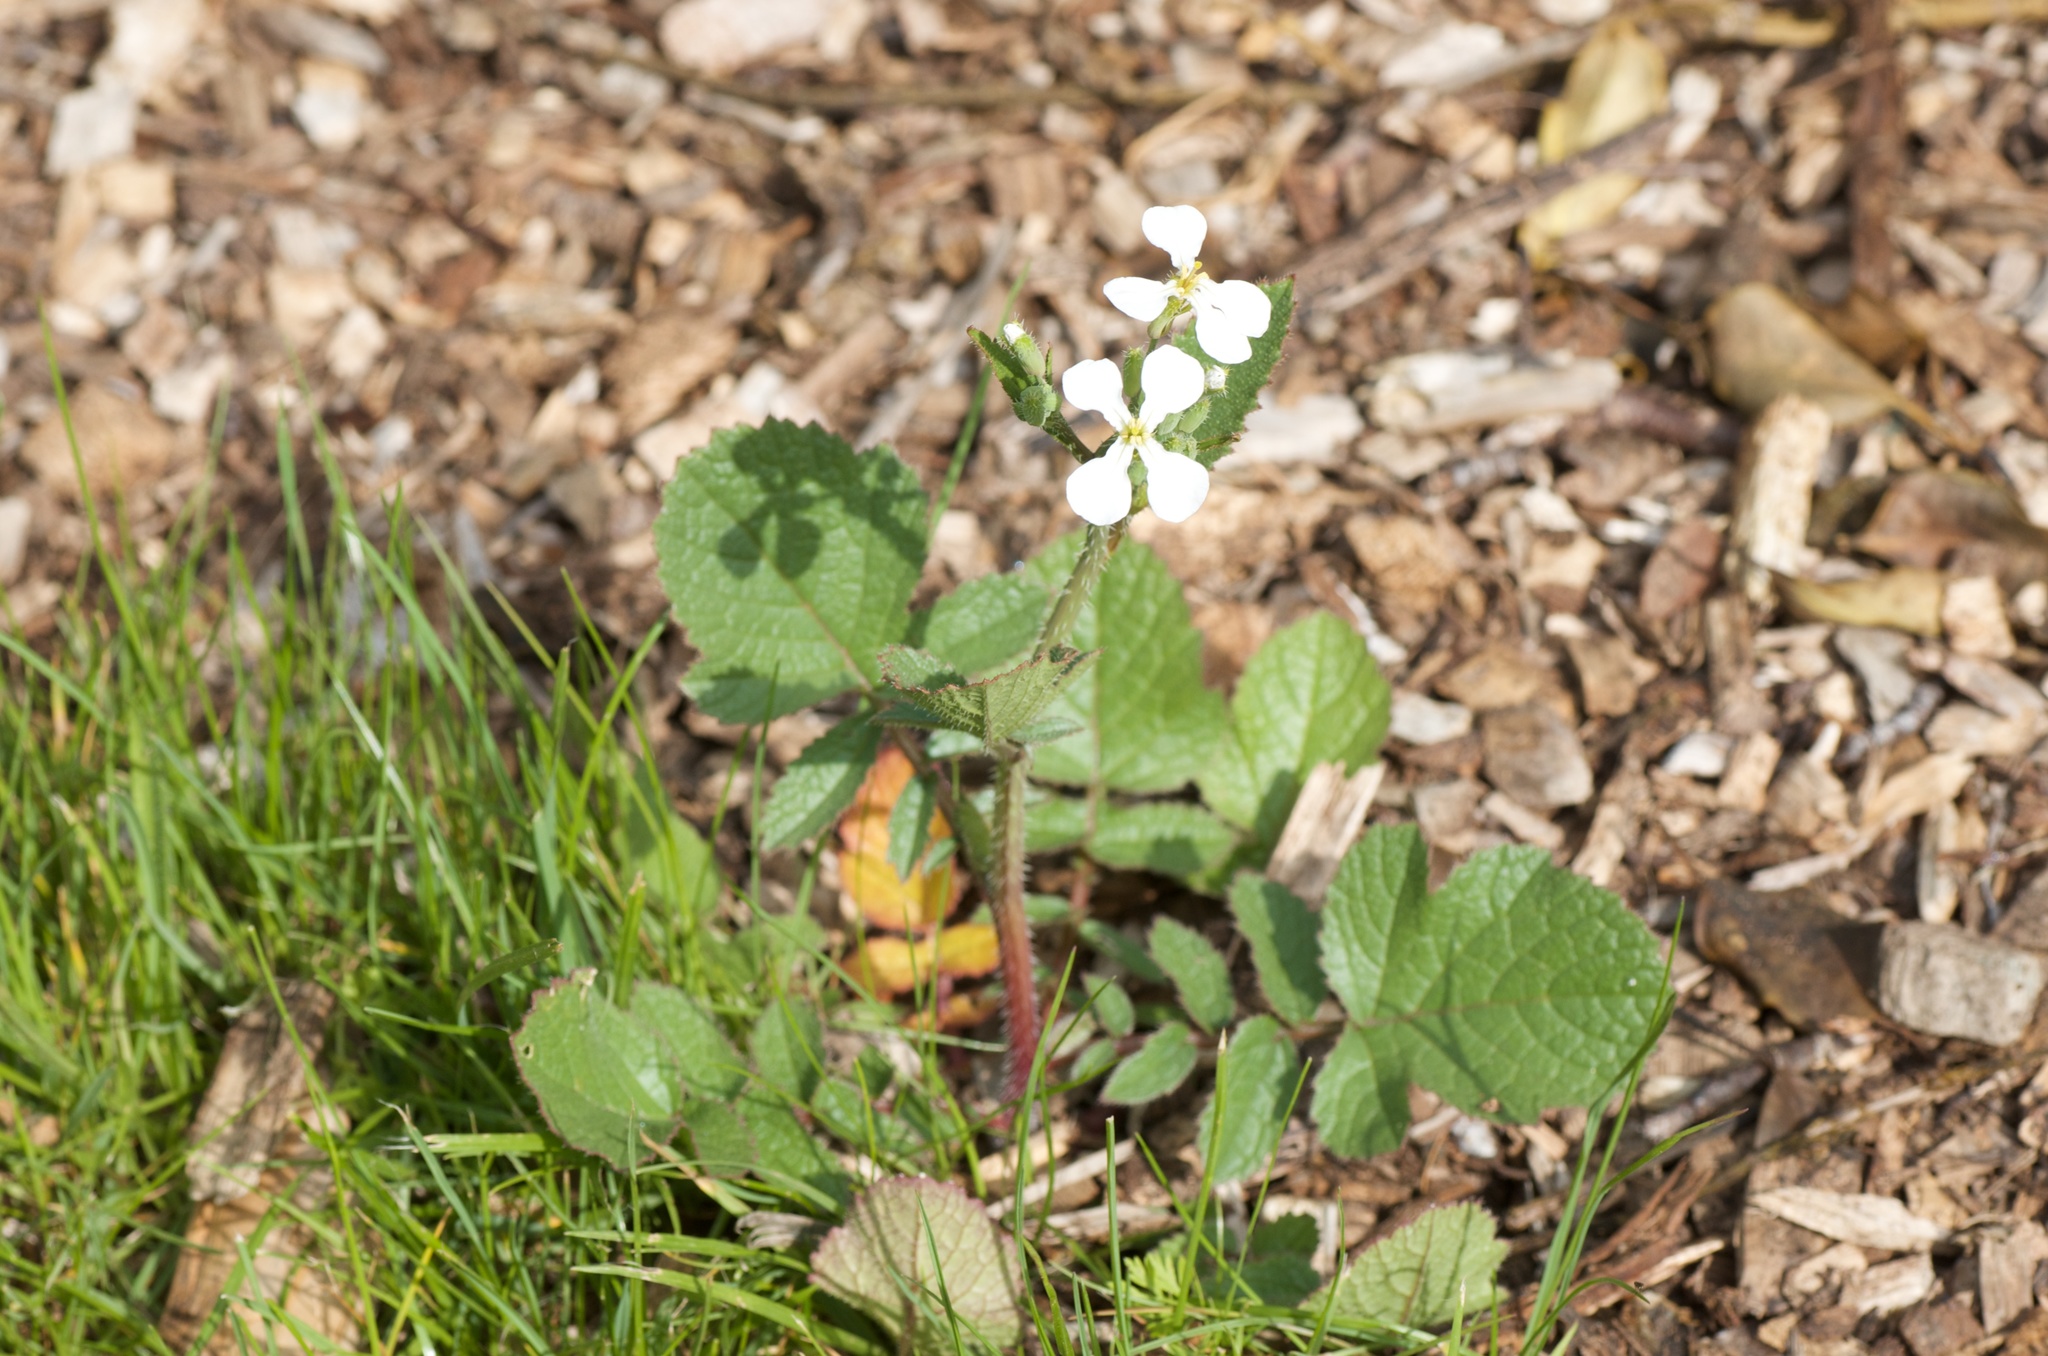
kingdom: Plantae
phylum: Tracheophyta
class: Magnoliopsida
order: Brassicales
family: Brassicaceae
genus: Raphanus
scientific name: Raphanus raphanistrum
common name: Wild radish
